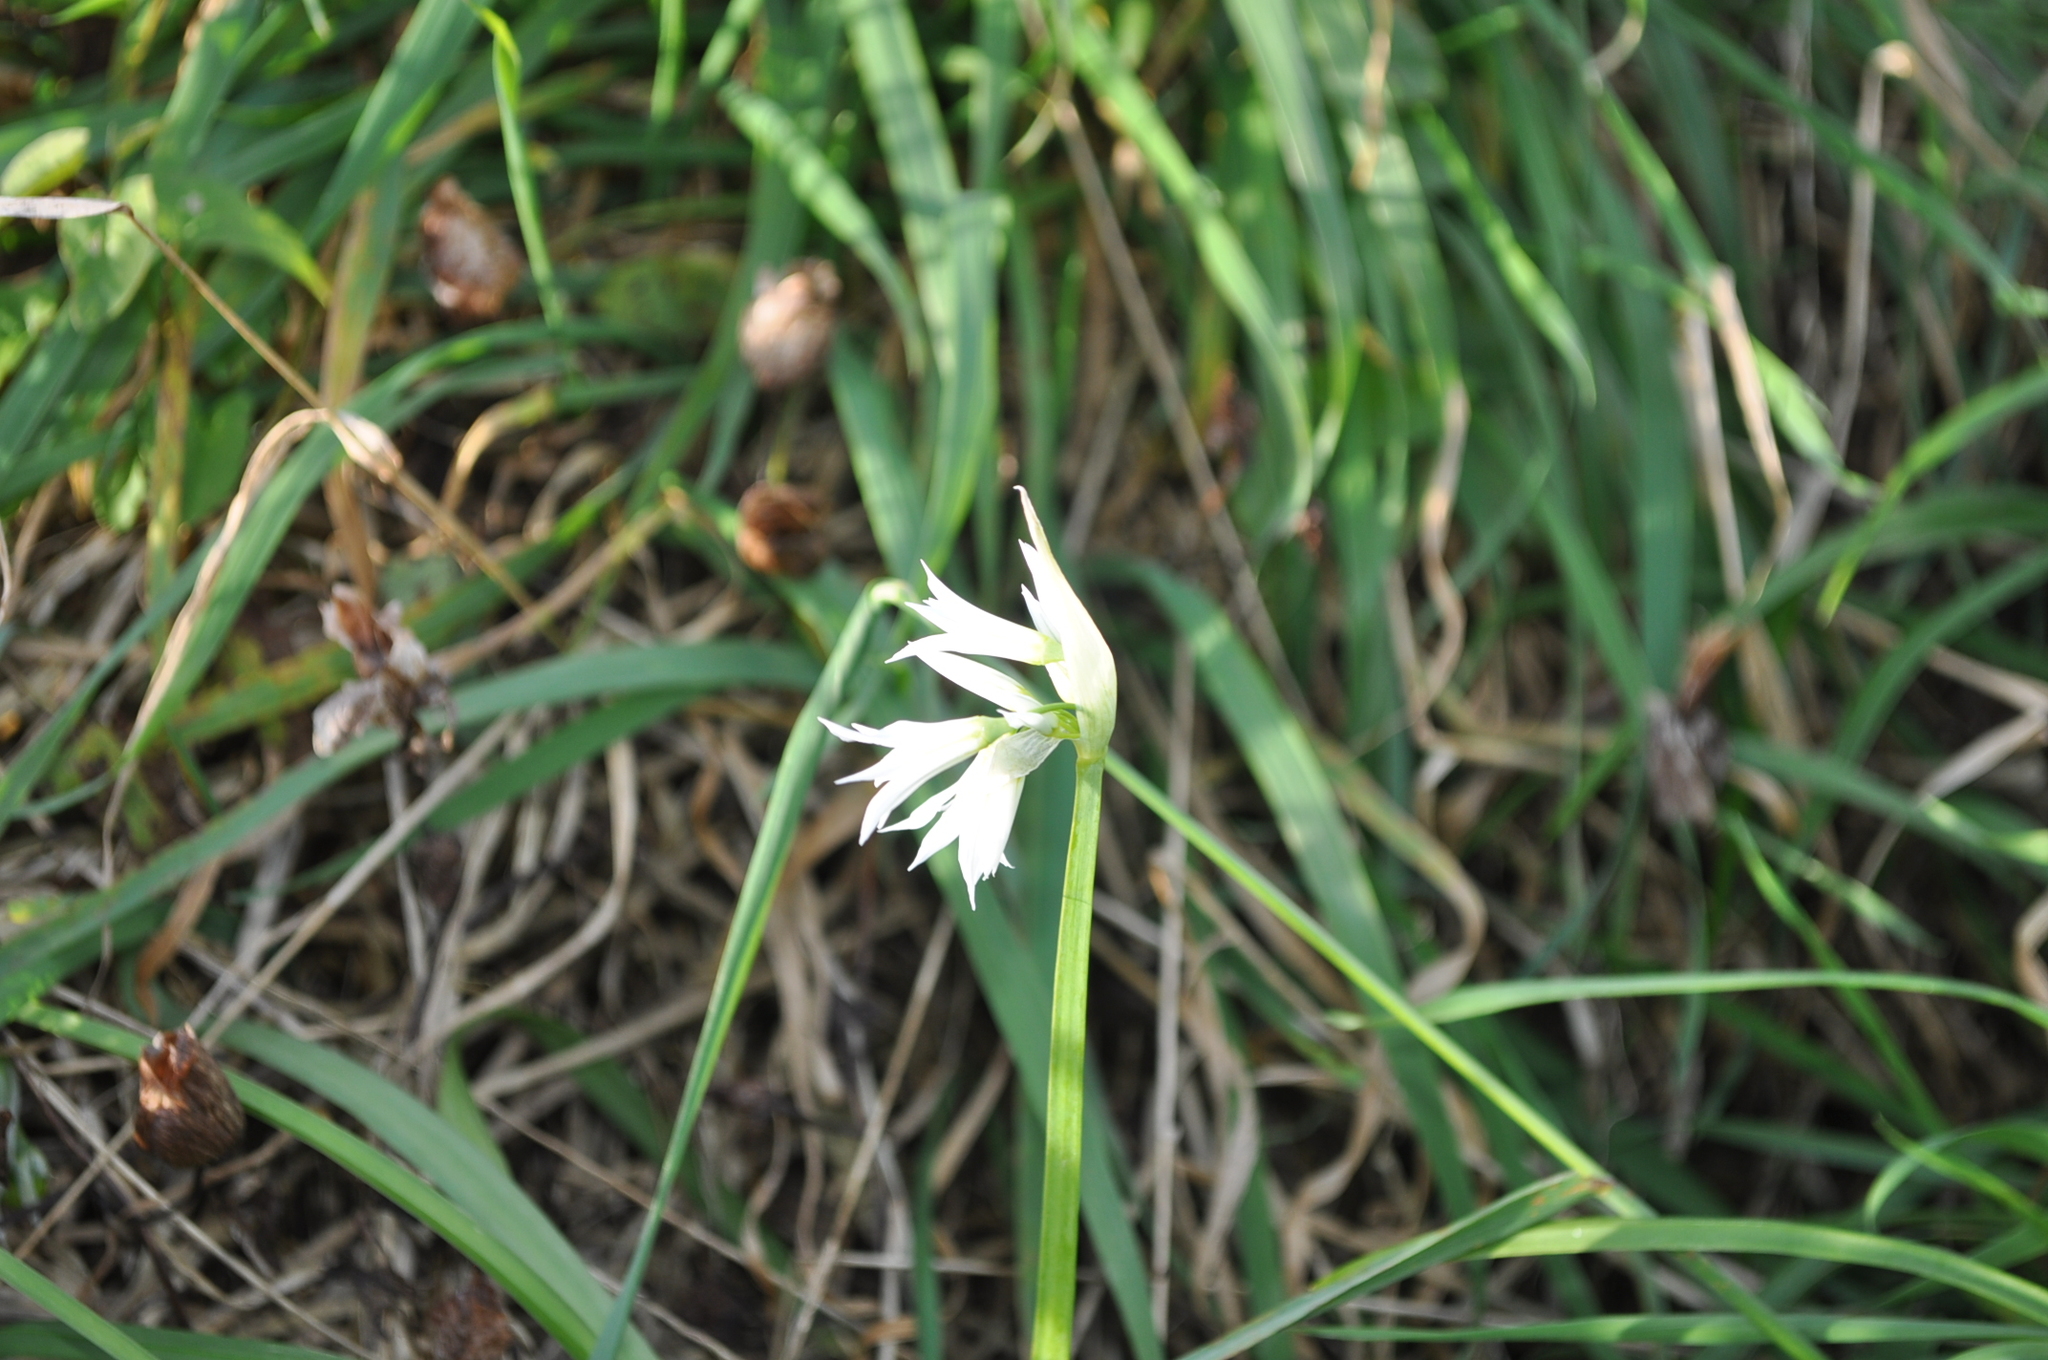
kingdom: Plantae
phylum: Tracheophyta
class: Liliopsida
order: Asparagales
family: Amaryllidaceae
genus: Allium
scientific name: Allium triquetrum
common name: Three-cornered garlic
